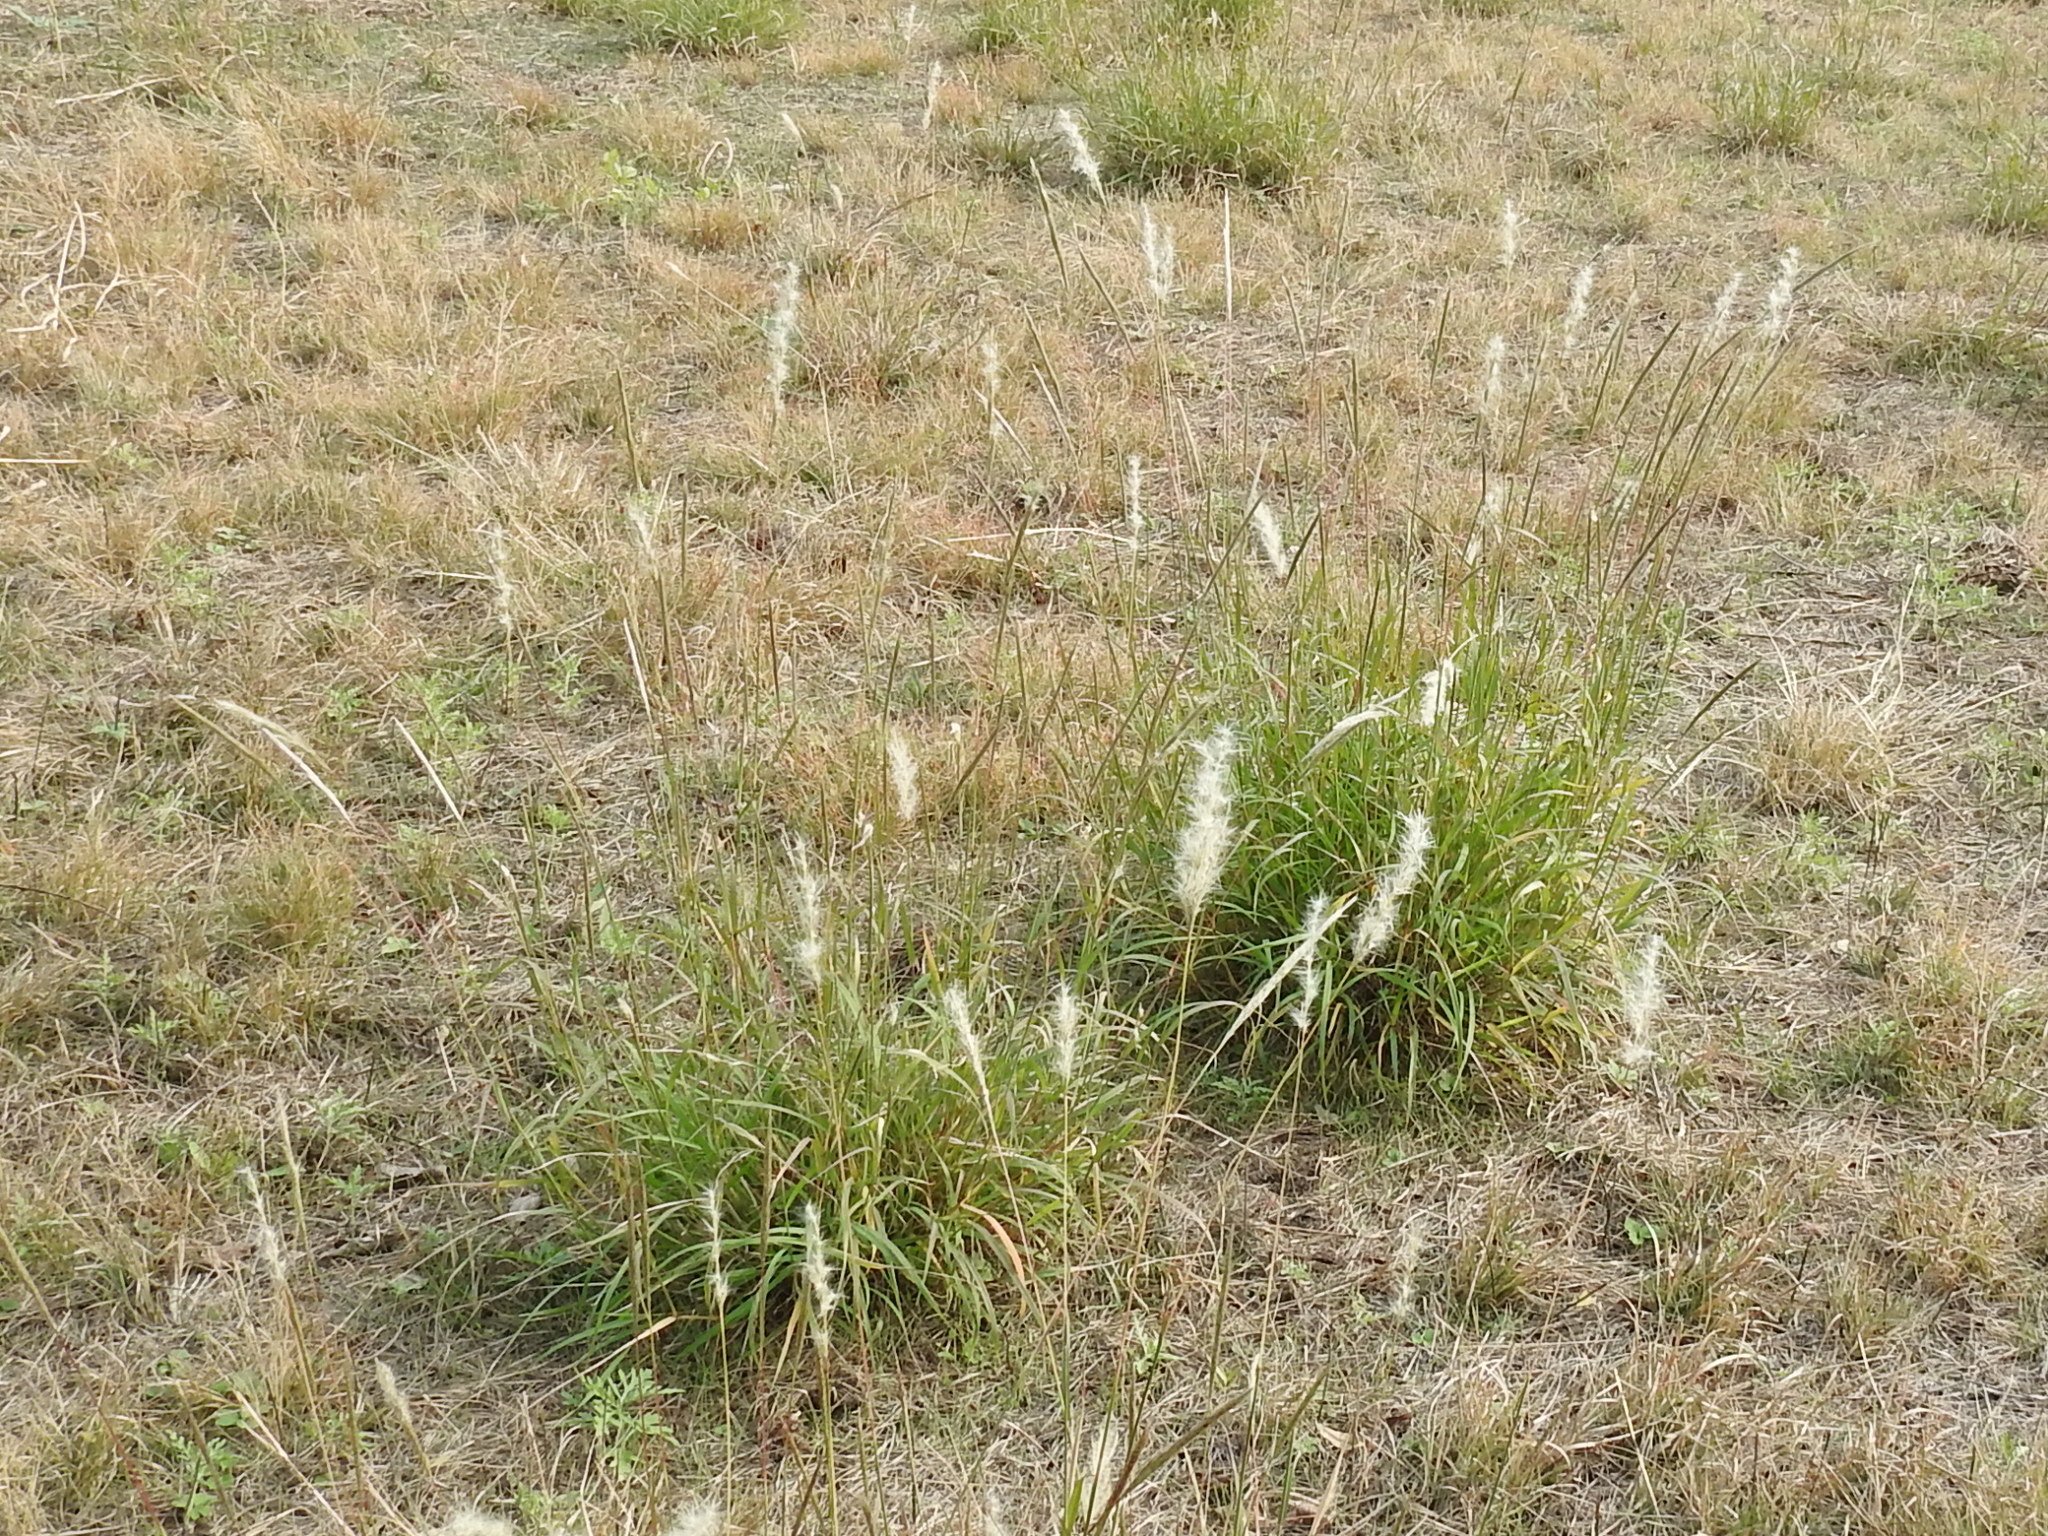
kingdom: Plantae
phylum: Tracheophyta
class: Liliopsida
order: Poales
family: Poaceae
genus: Bothriochloa
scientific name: Bothriochloa torreyana
